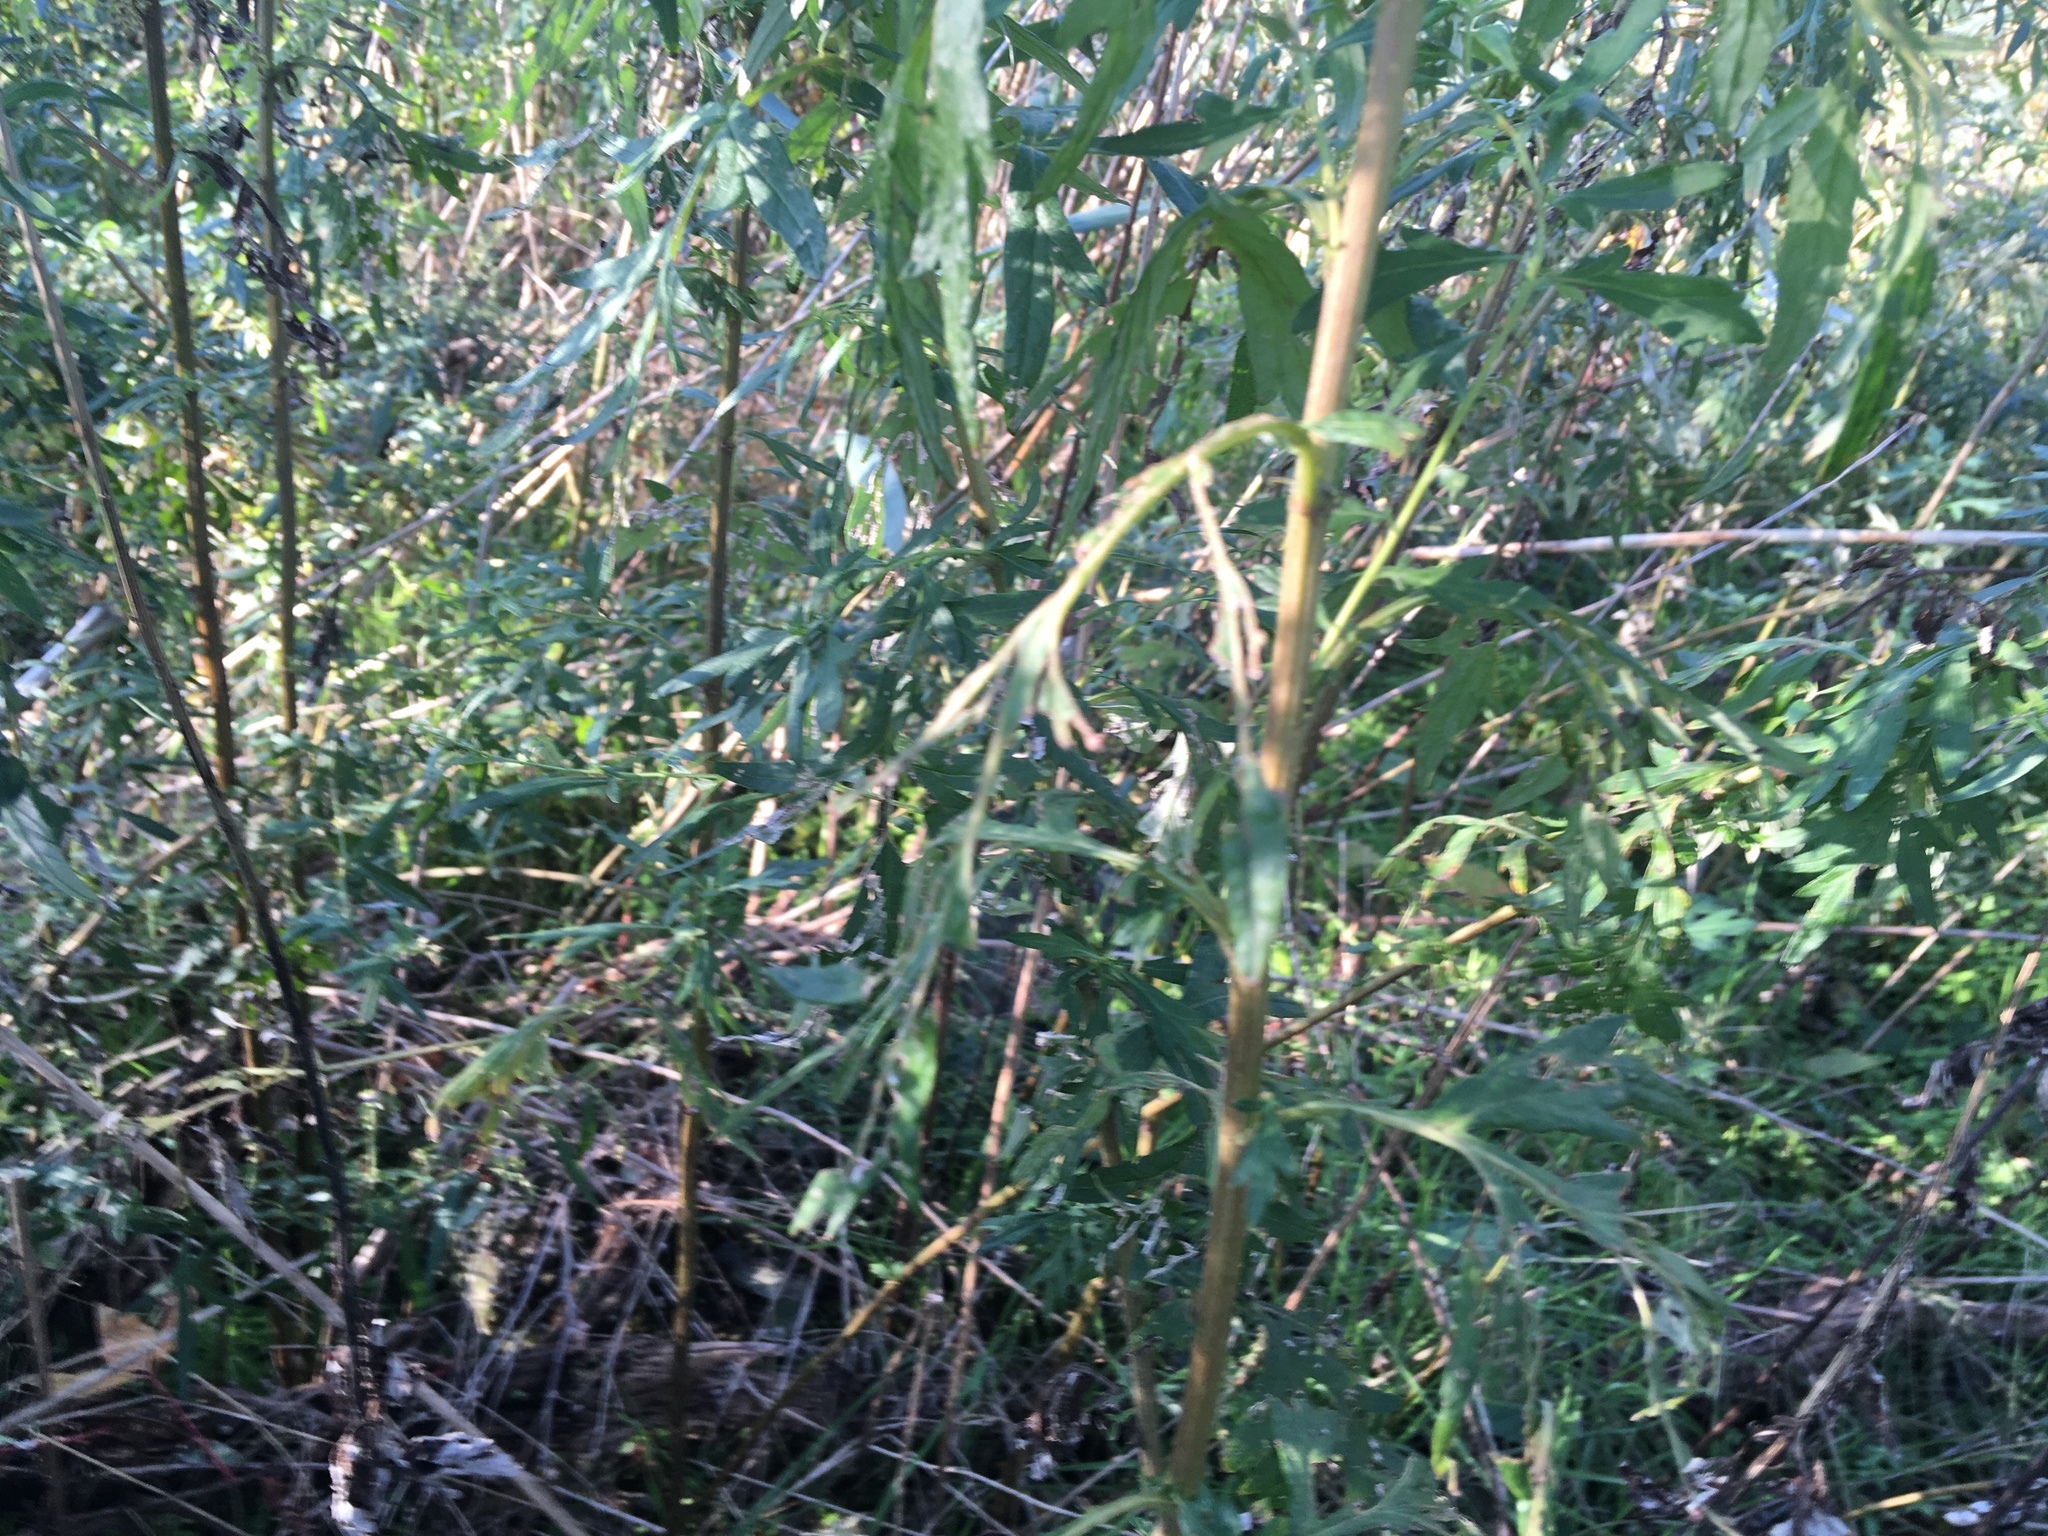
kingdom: Plantae
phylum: Tracheophyta
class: Magnoliopsida
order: Asterales
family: Asteraceae
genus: Artemisia
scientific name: Artemisia vulgaris
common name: Mugwort
